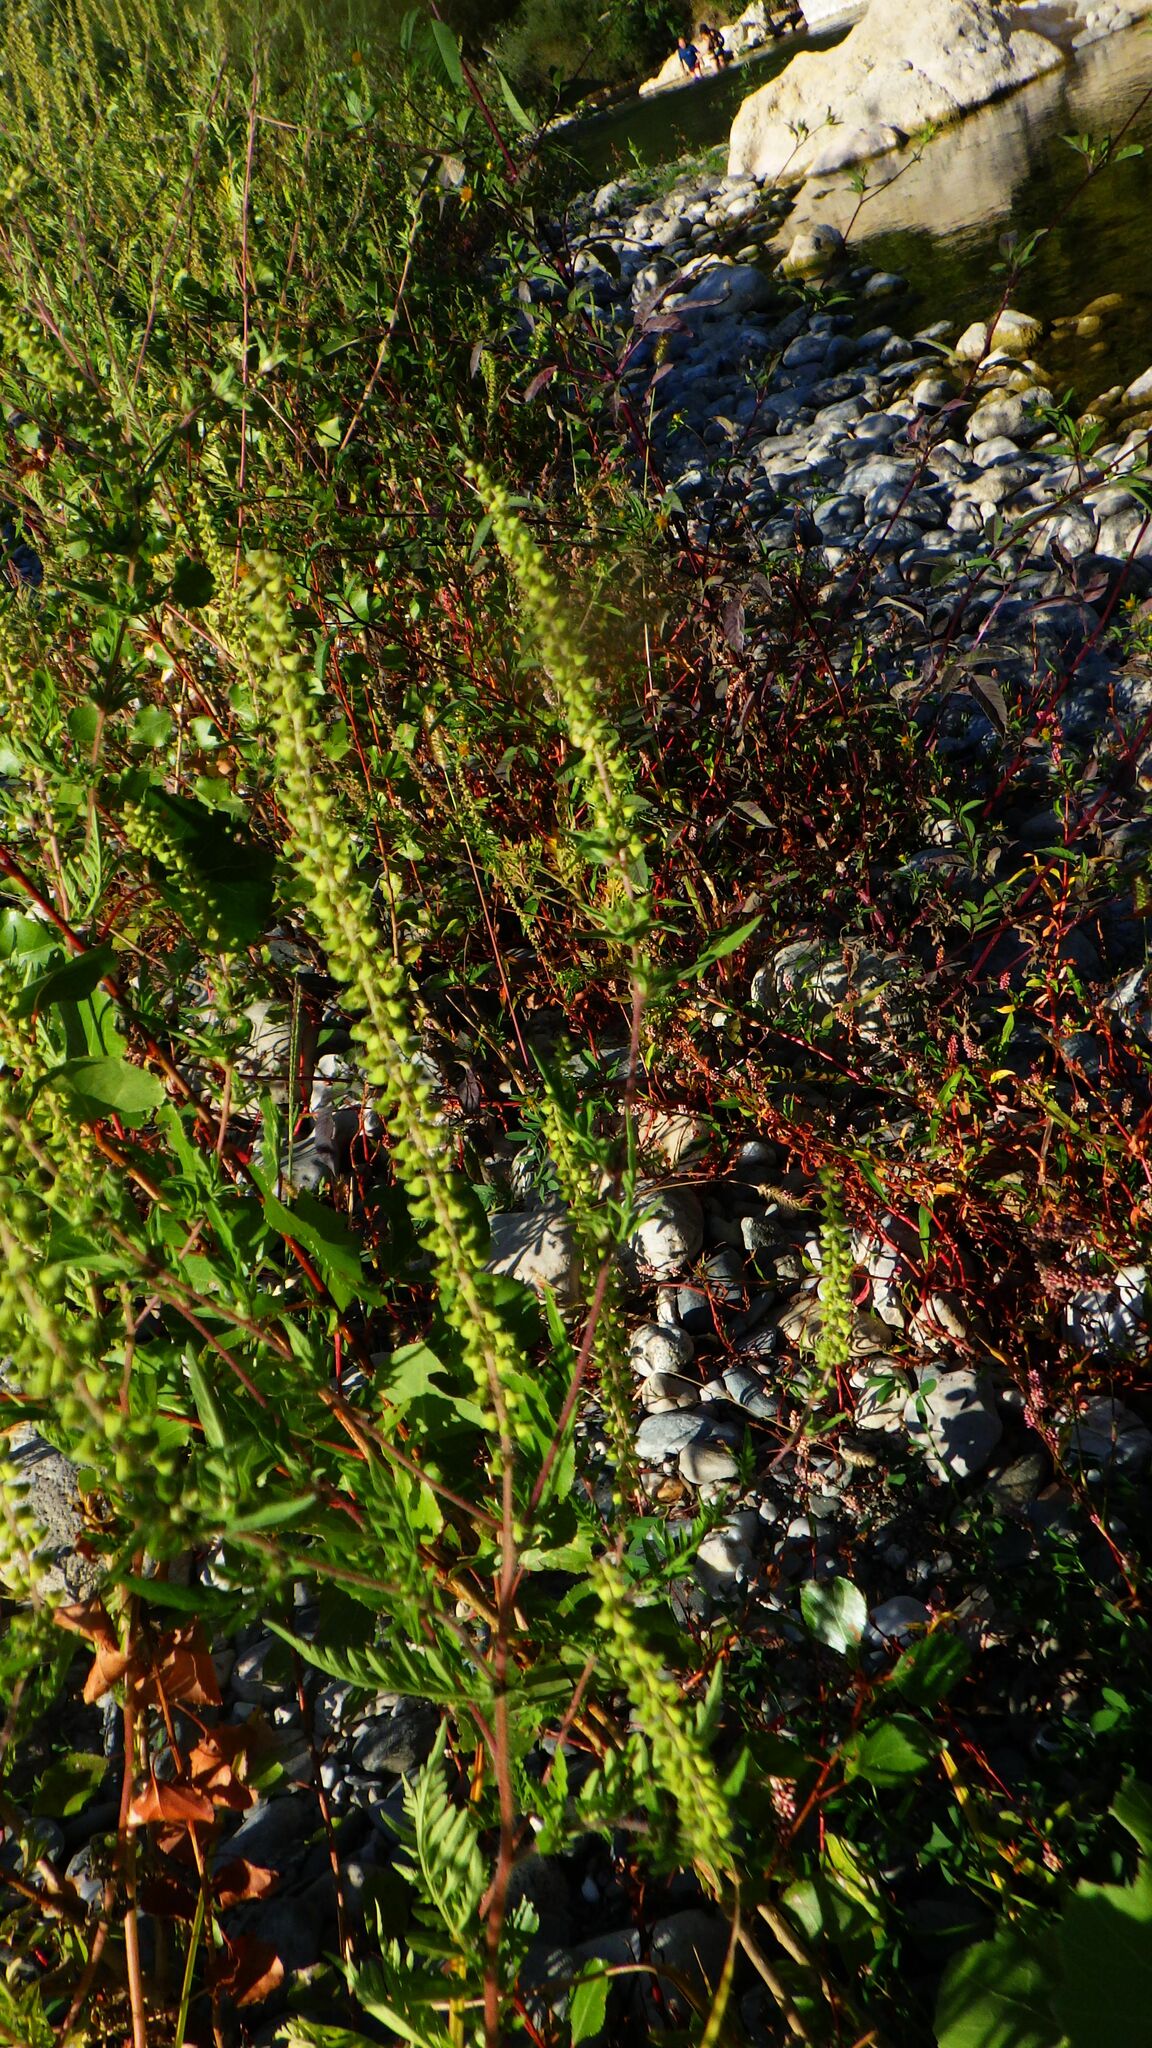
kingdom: Plantae
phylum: Tracheophyta
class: Magnoliopsida
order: Asterales
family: Asteraceae
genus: Ambrosia
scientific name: Ambrosia artemisiifolia
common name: Annual ragweed
